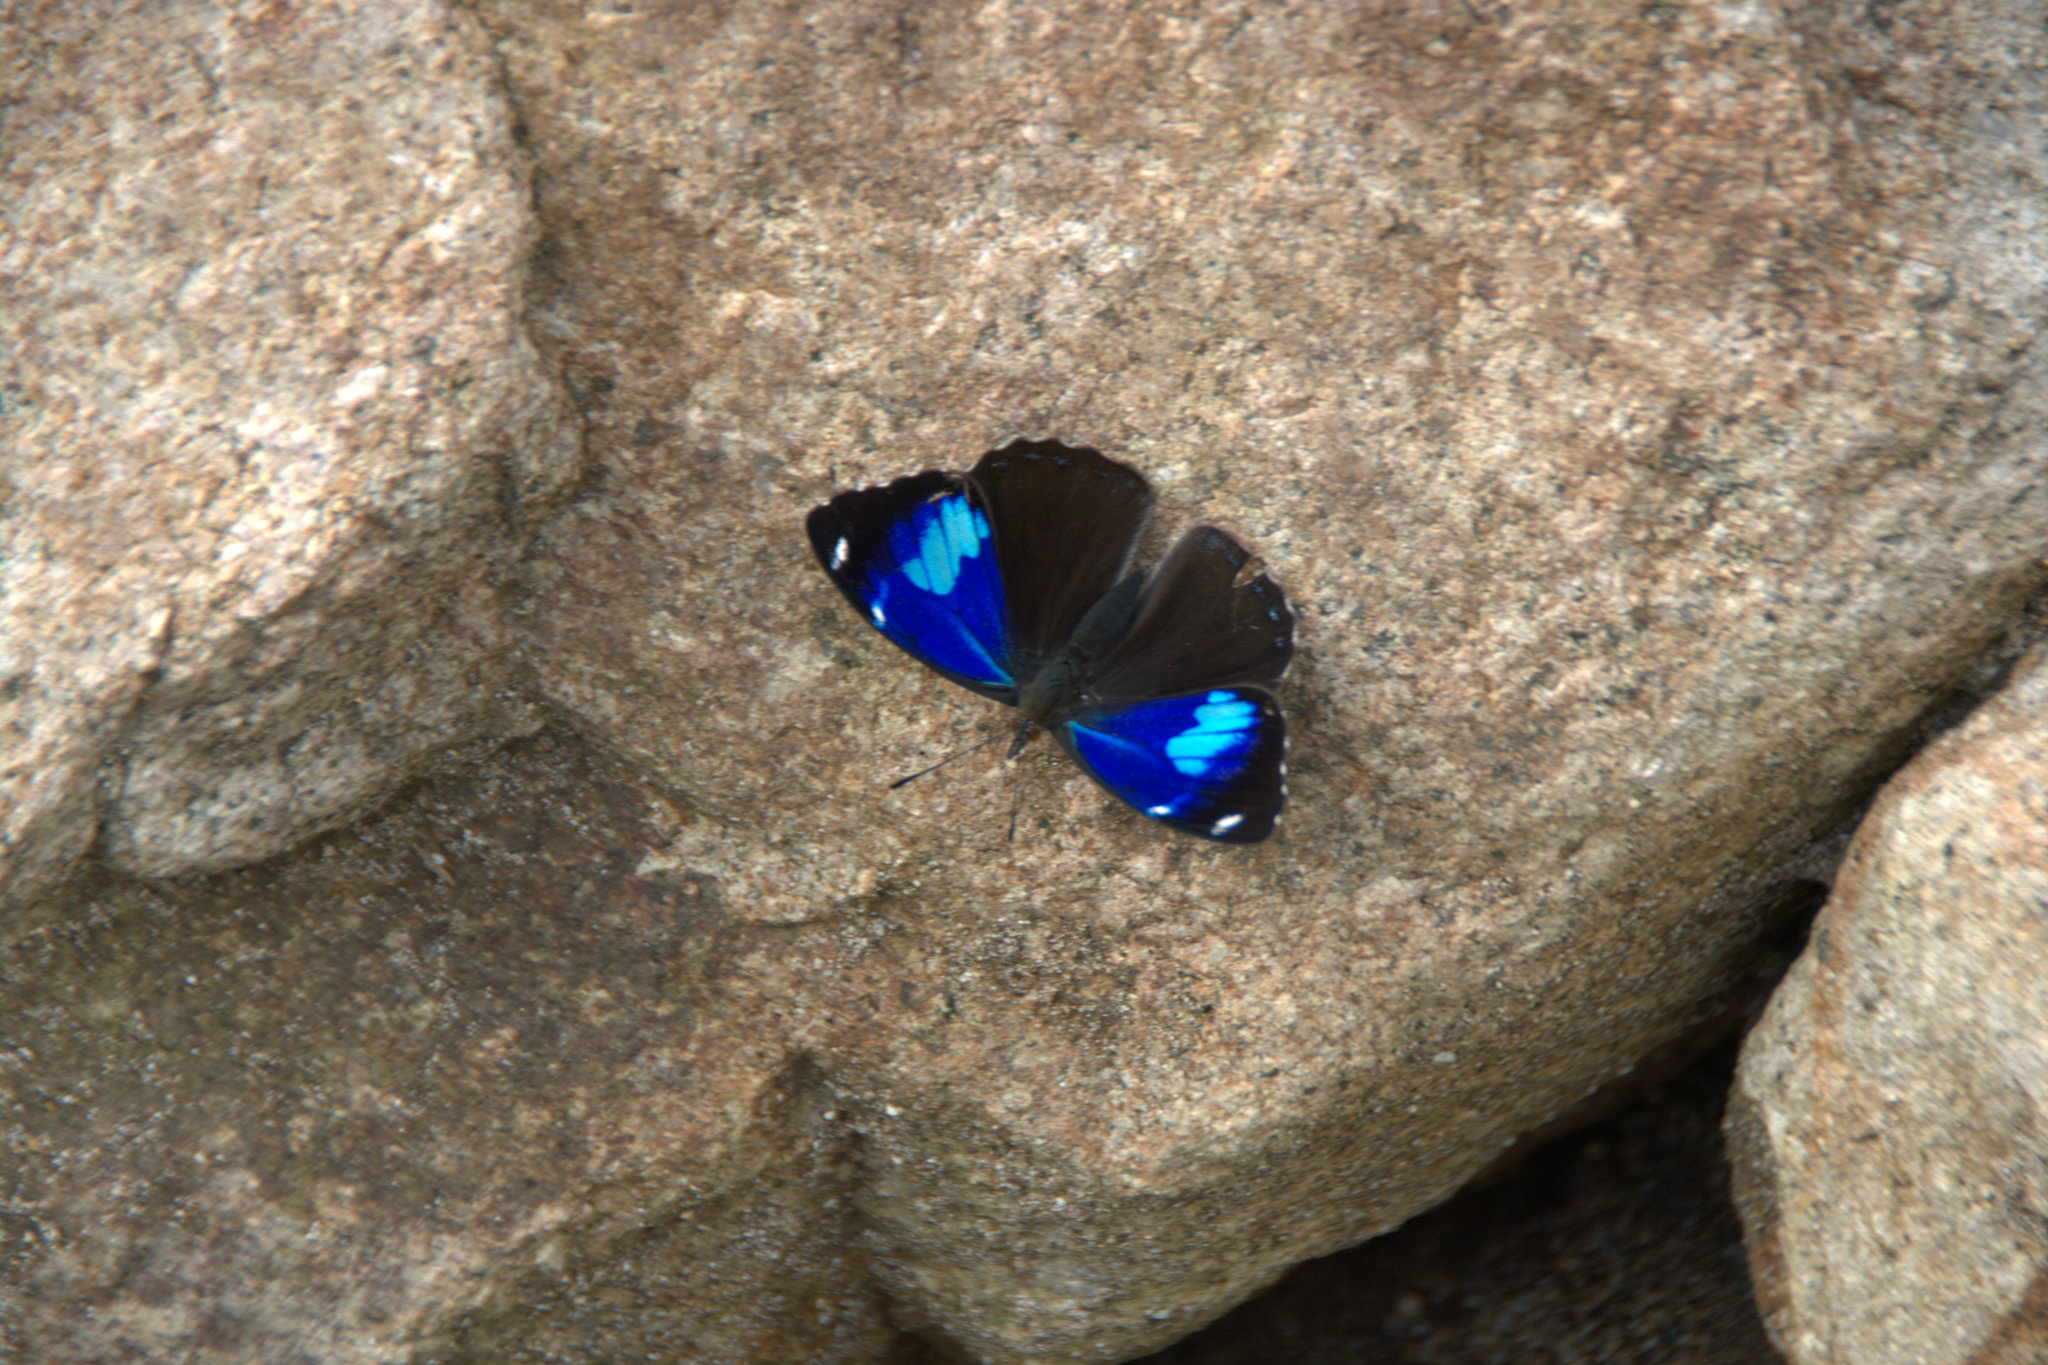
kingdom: Animalia
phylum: Arthropoda
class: Insecta
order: Lepidoptera
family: Nymphalidae
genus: Perisama
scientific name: Perisama calamis
